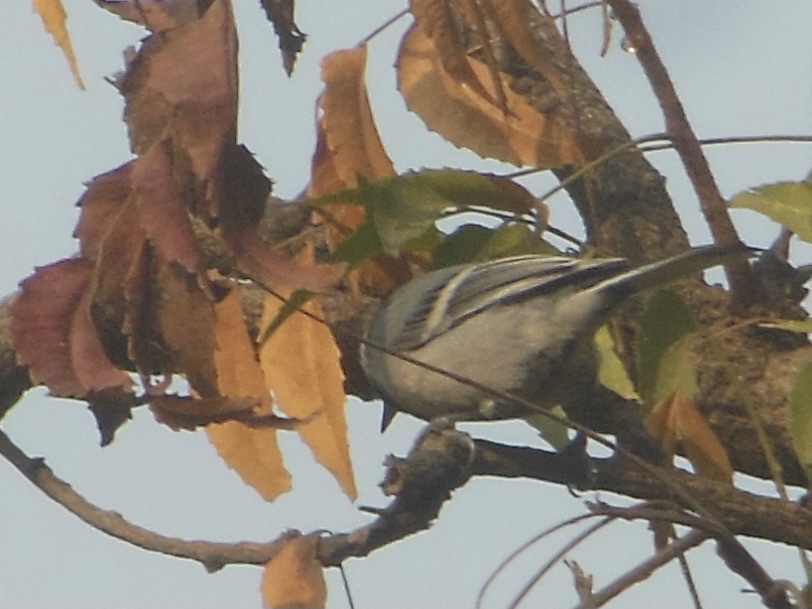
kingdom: Animalia
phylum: Chordata
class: Aves
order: Passeriformes
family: Paridae
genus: Parus
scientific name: Parus cinereus
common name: Cinereous tit
